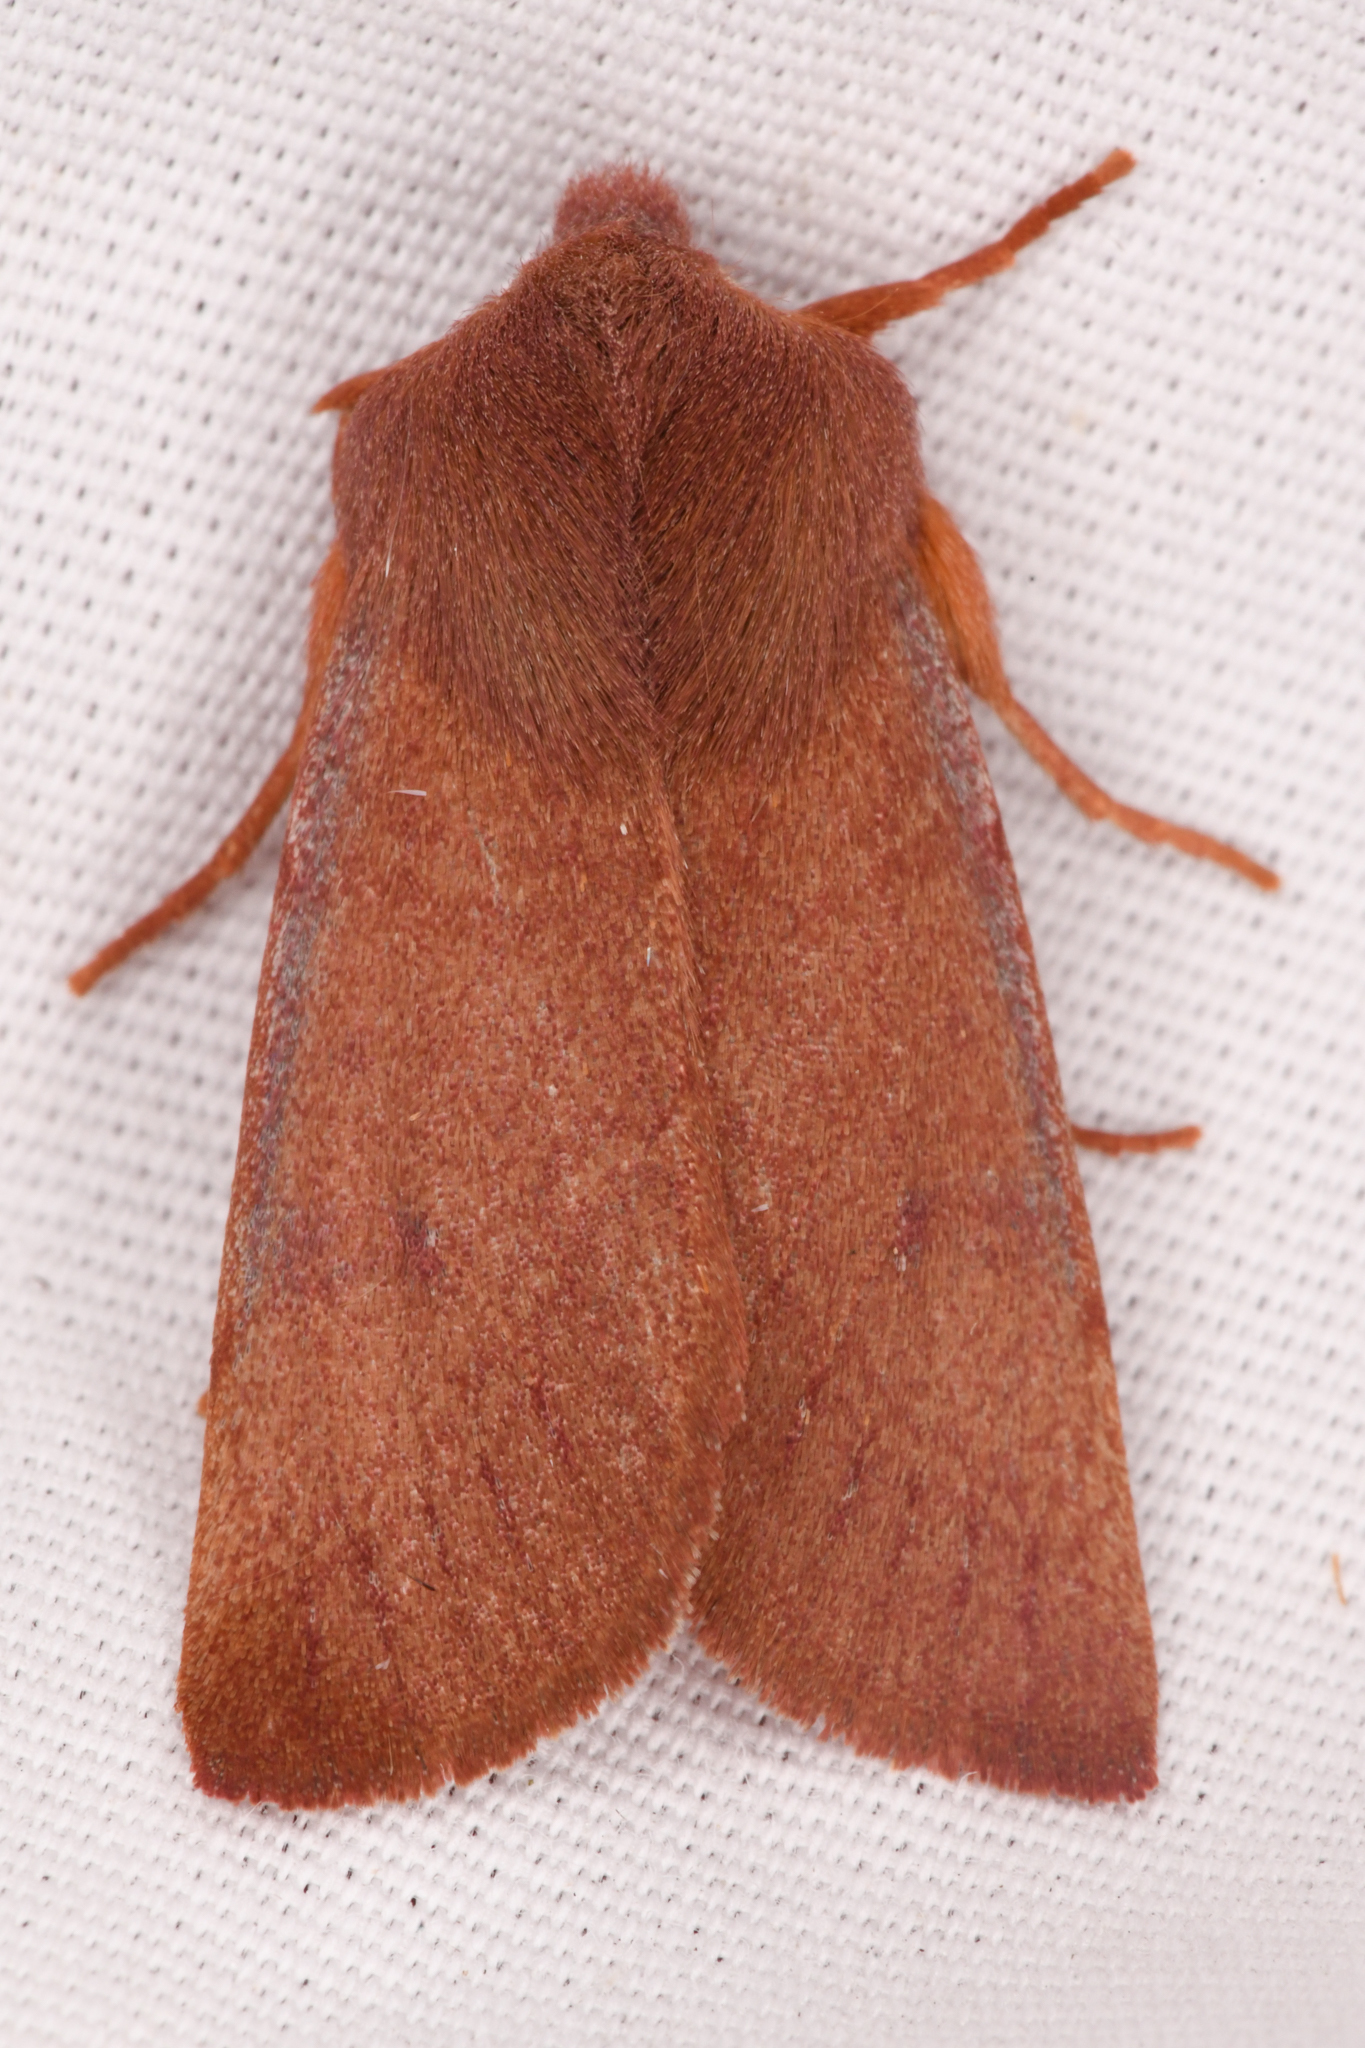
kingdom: Animalia
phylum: Arthropoda
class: Insecta
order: Lepidoptera
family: Noctuidae
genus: Orthosia
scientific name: Orthosia mys
